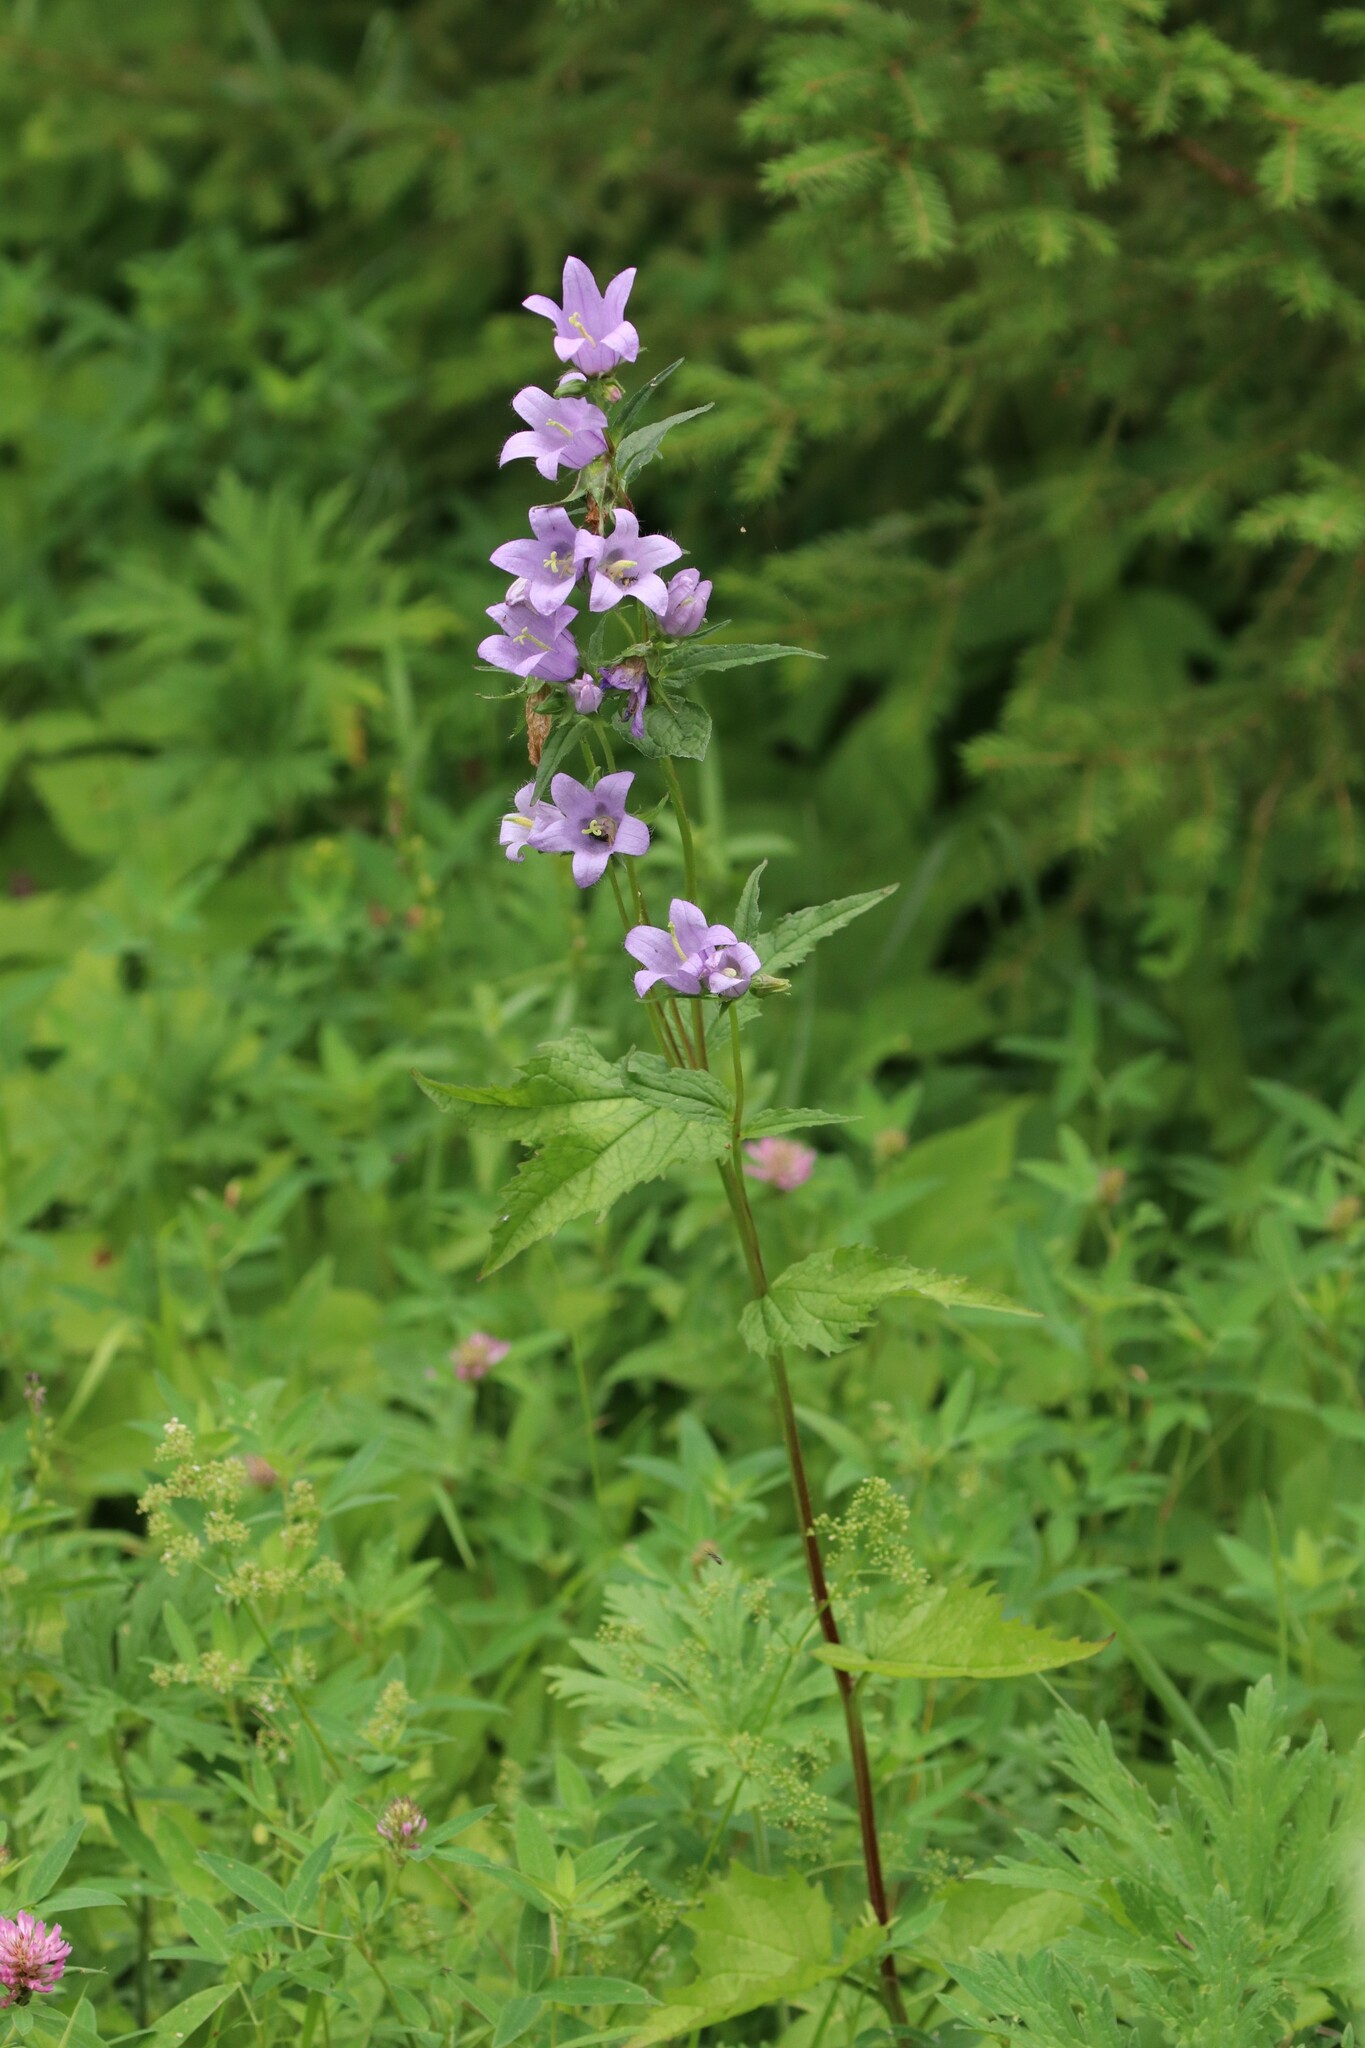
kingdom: Plantae
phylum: Tracheophyta
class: Magnoliopsida
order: Asterales
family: Campanulaceae
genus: Campanula
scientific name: Campanula trachelium
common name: Nettle-leaved bellflower
